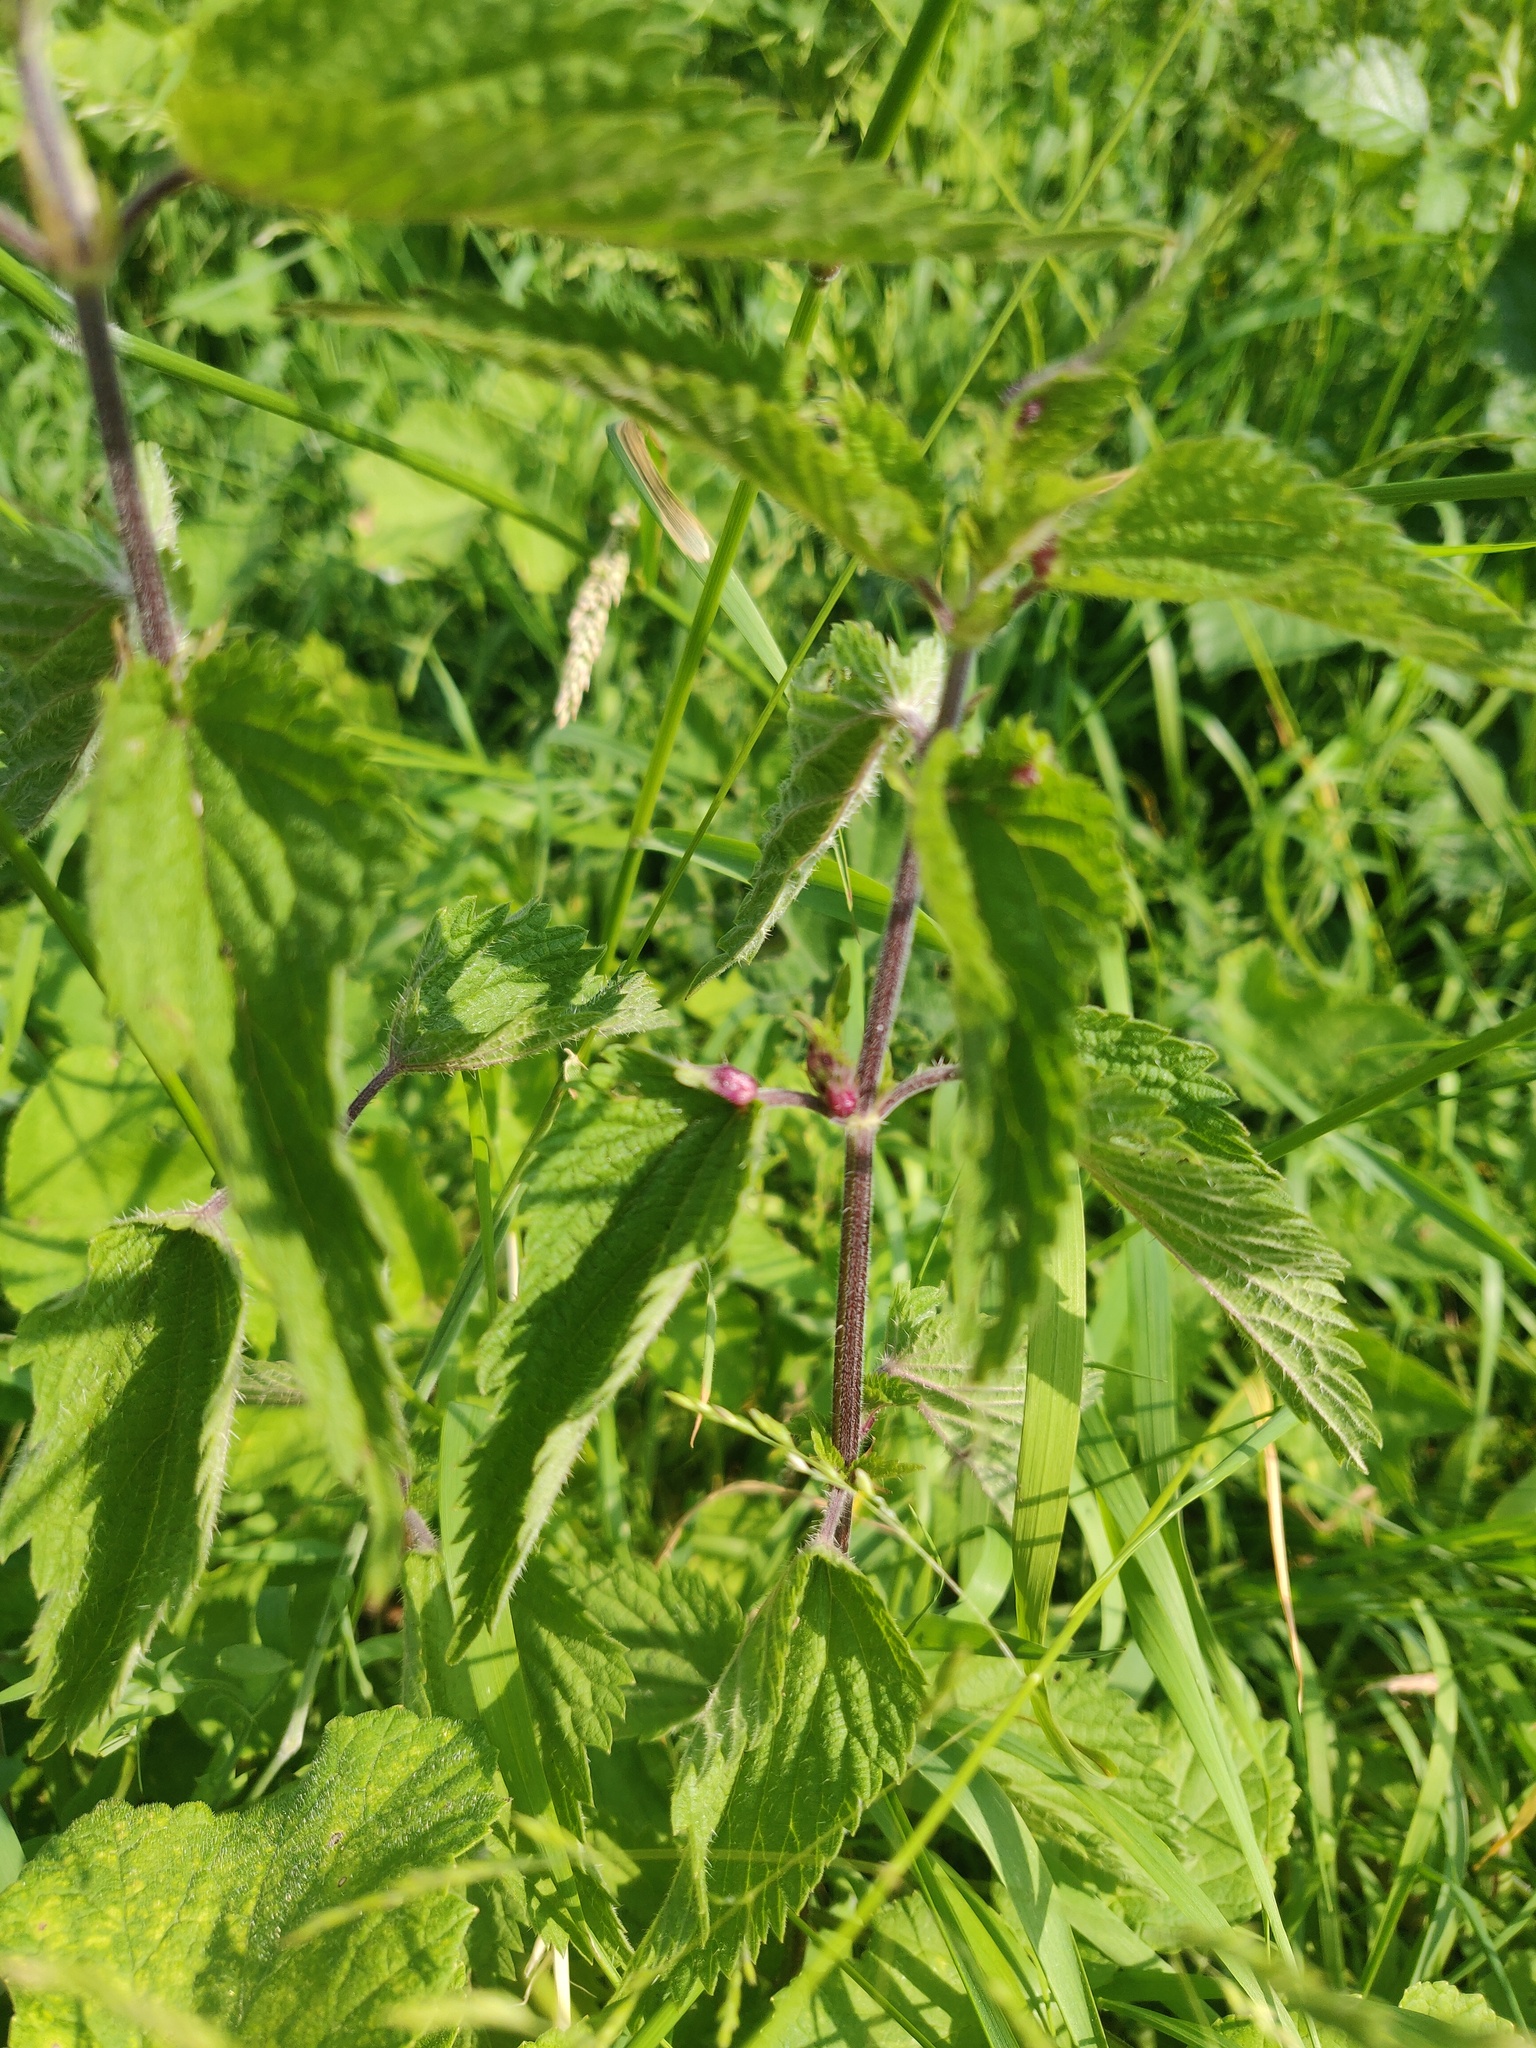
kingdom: Animalia
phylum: Arthropoda
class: Insecta
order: Diptera
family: Cecidomyiidae
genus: Dasineura
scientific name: Dasineura urticae
